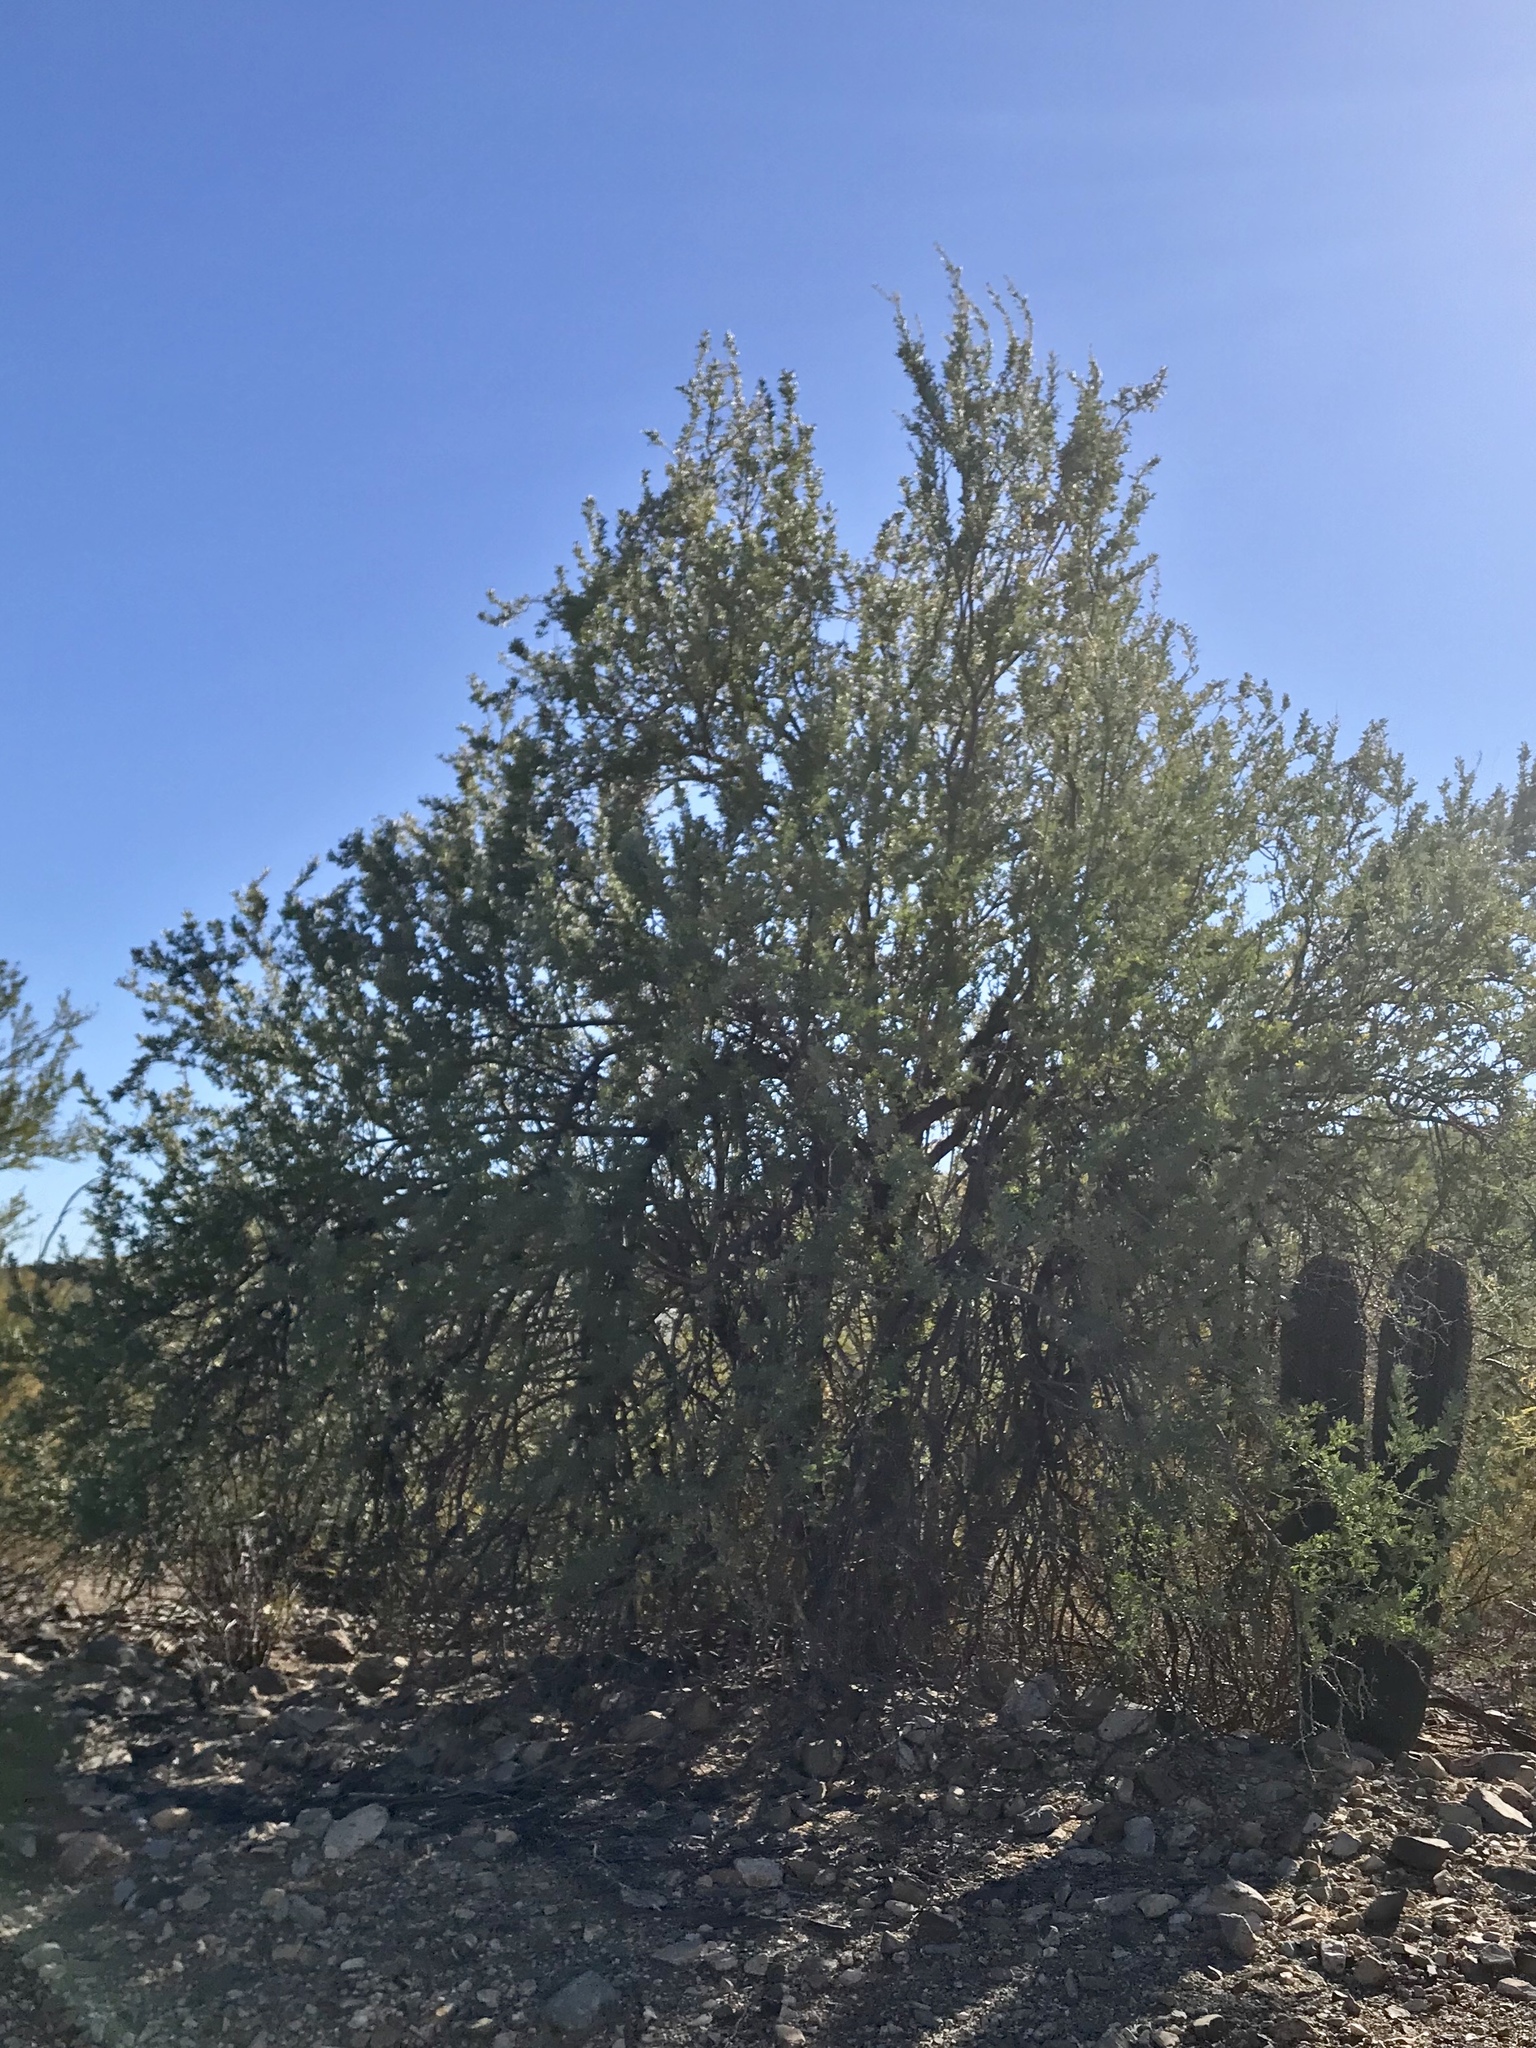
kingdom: Plantae
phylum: Tracheophyta
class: Magnoliopsida
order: Fabales
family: Fabaceae
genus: Olneya
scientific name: Olneya tesota
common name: Desert ironwood
